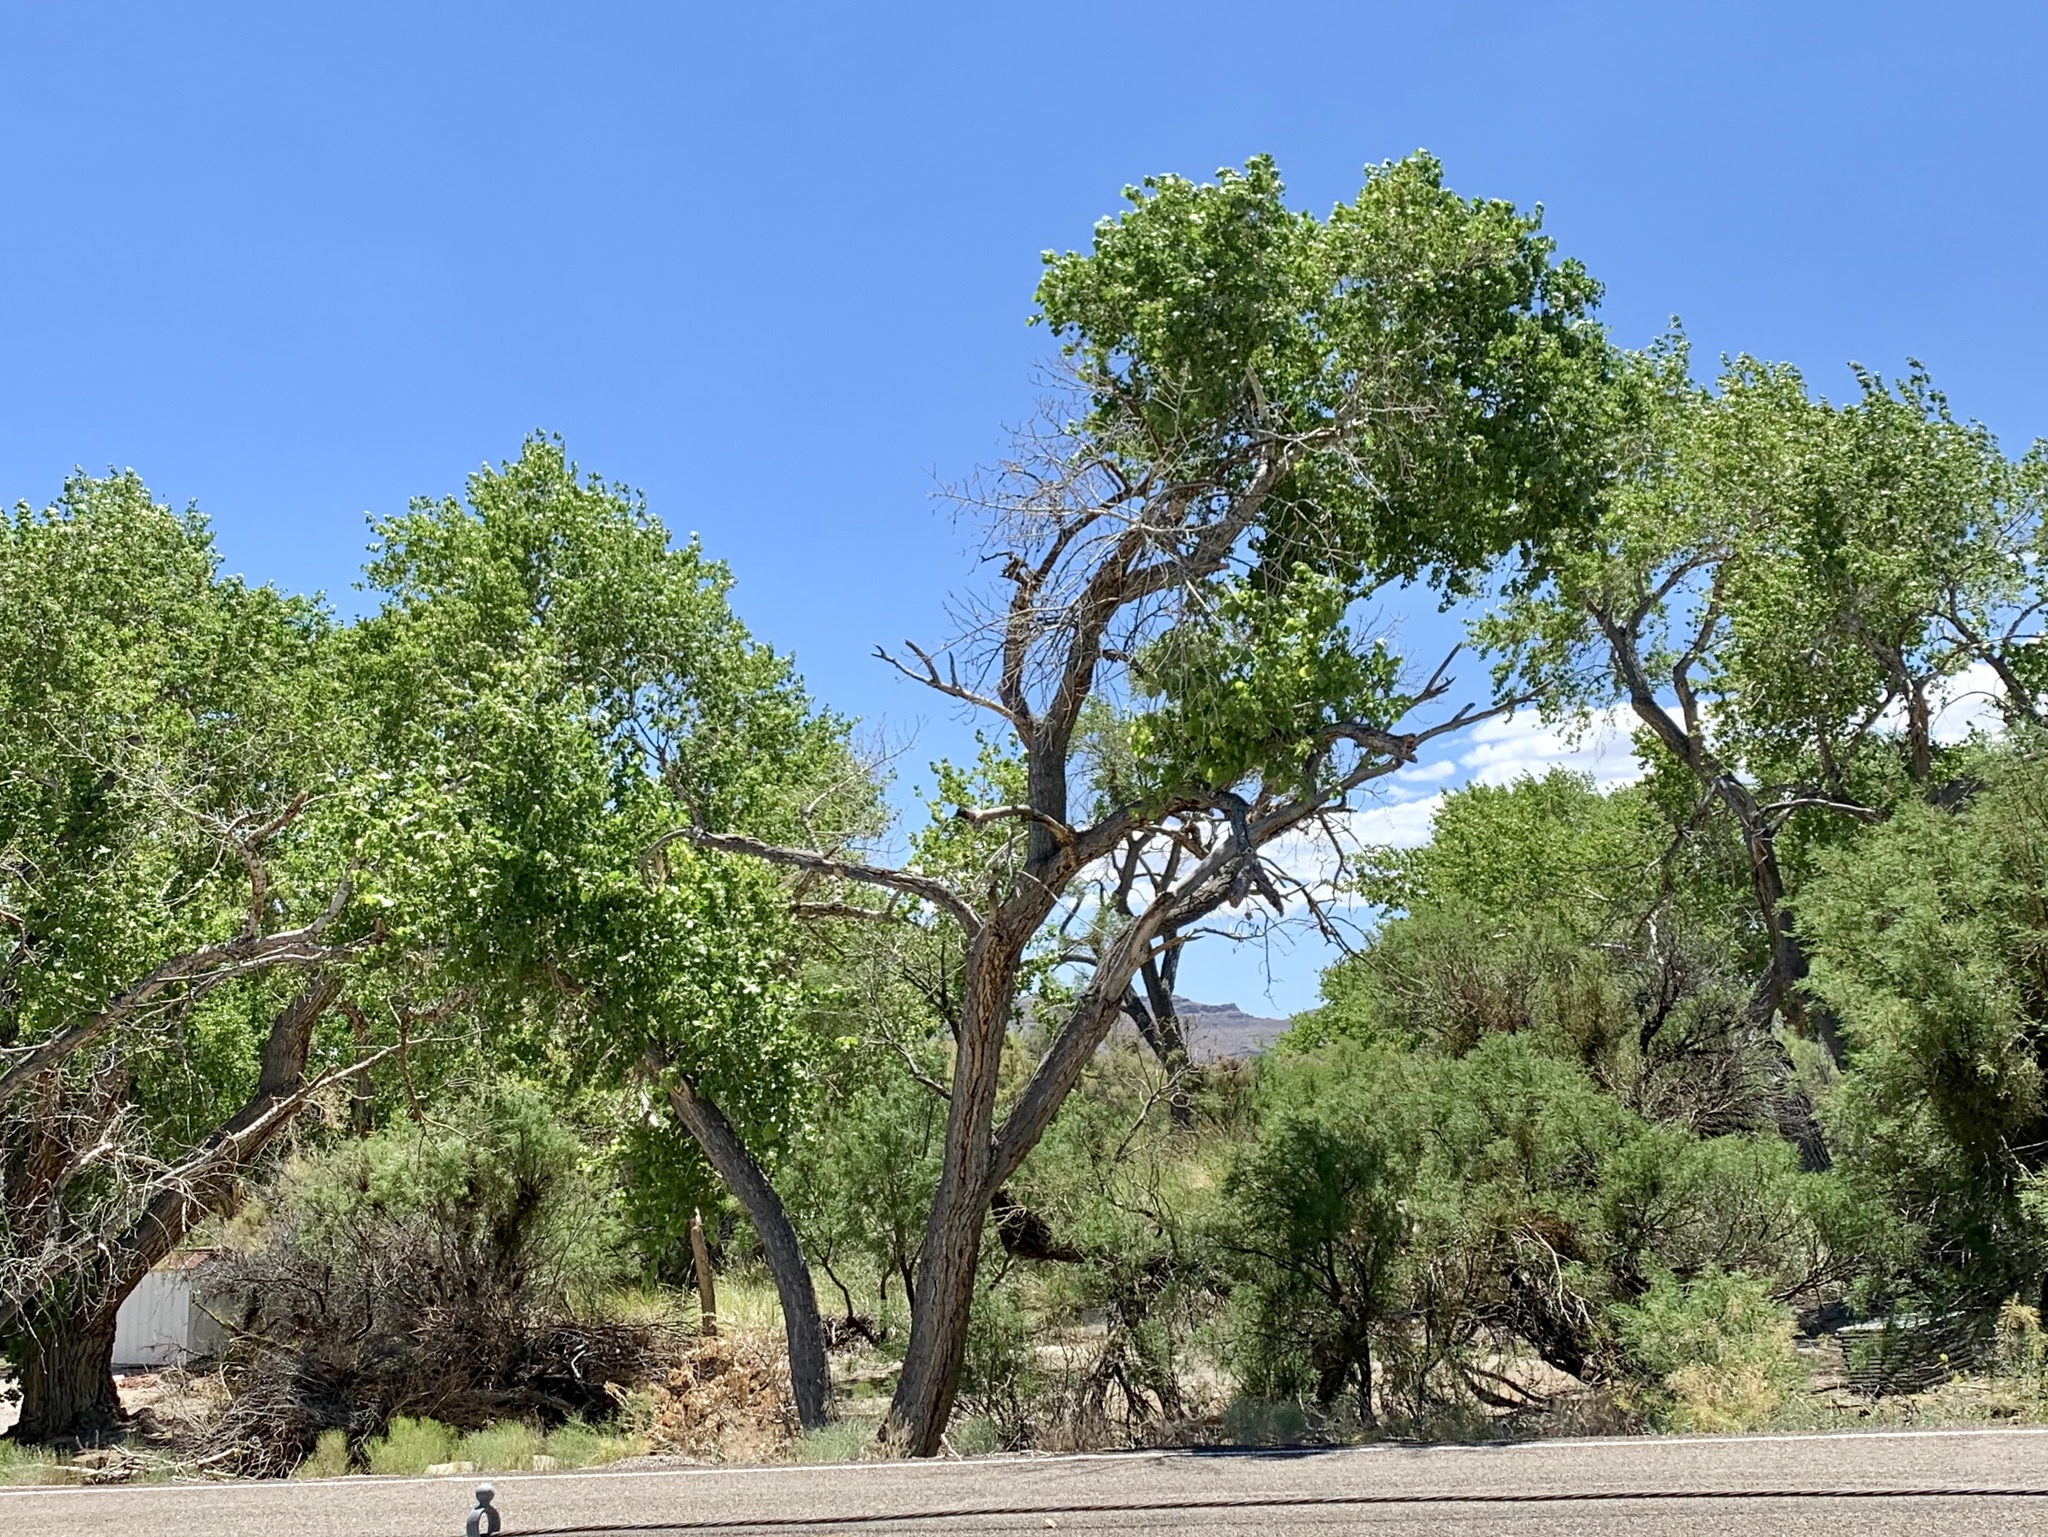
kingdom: Plantae
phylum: Tracheophyta
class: Magnoliopsida
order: Malpighiales
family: Salicaceae
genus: Populus
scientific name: Populus fremontii
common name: Fremont's cottonwood
